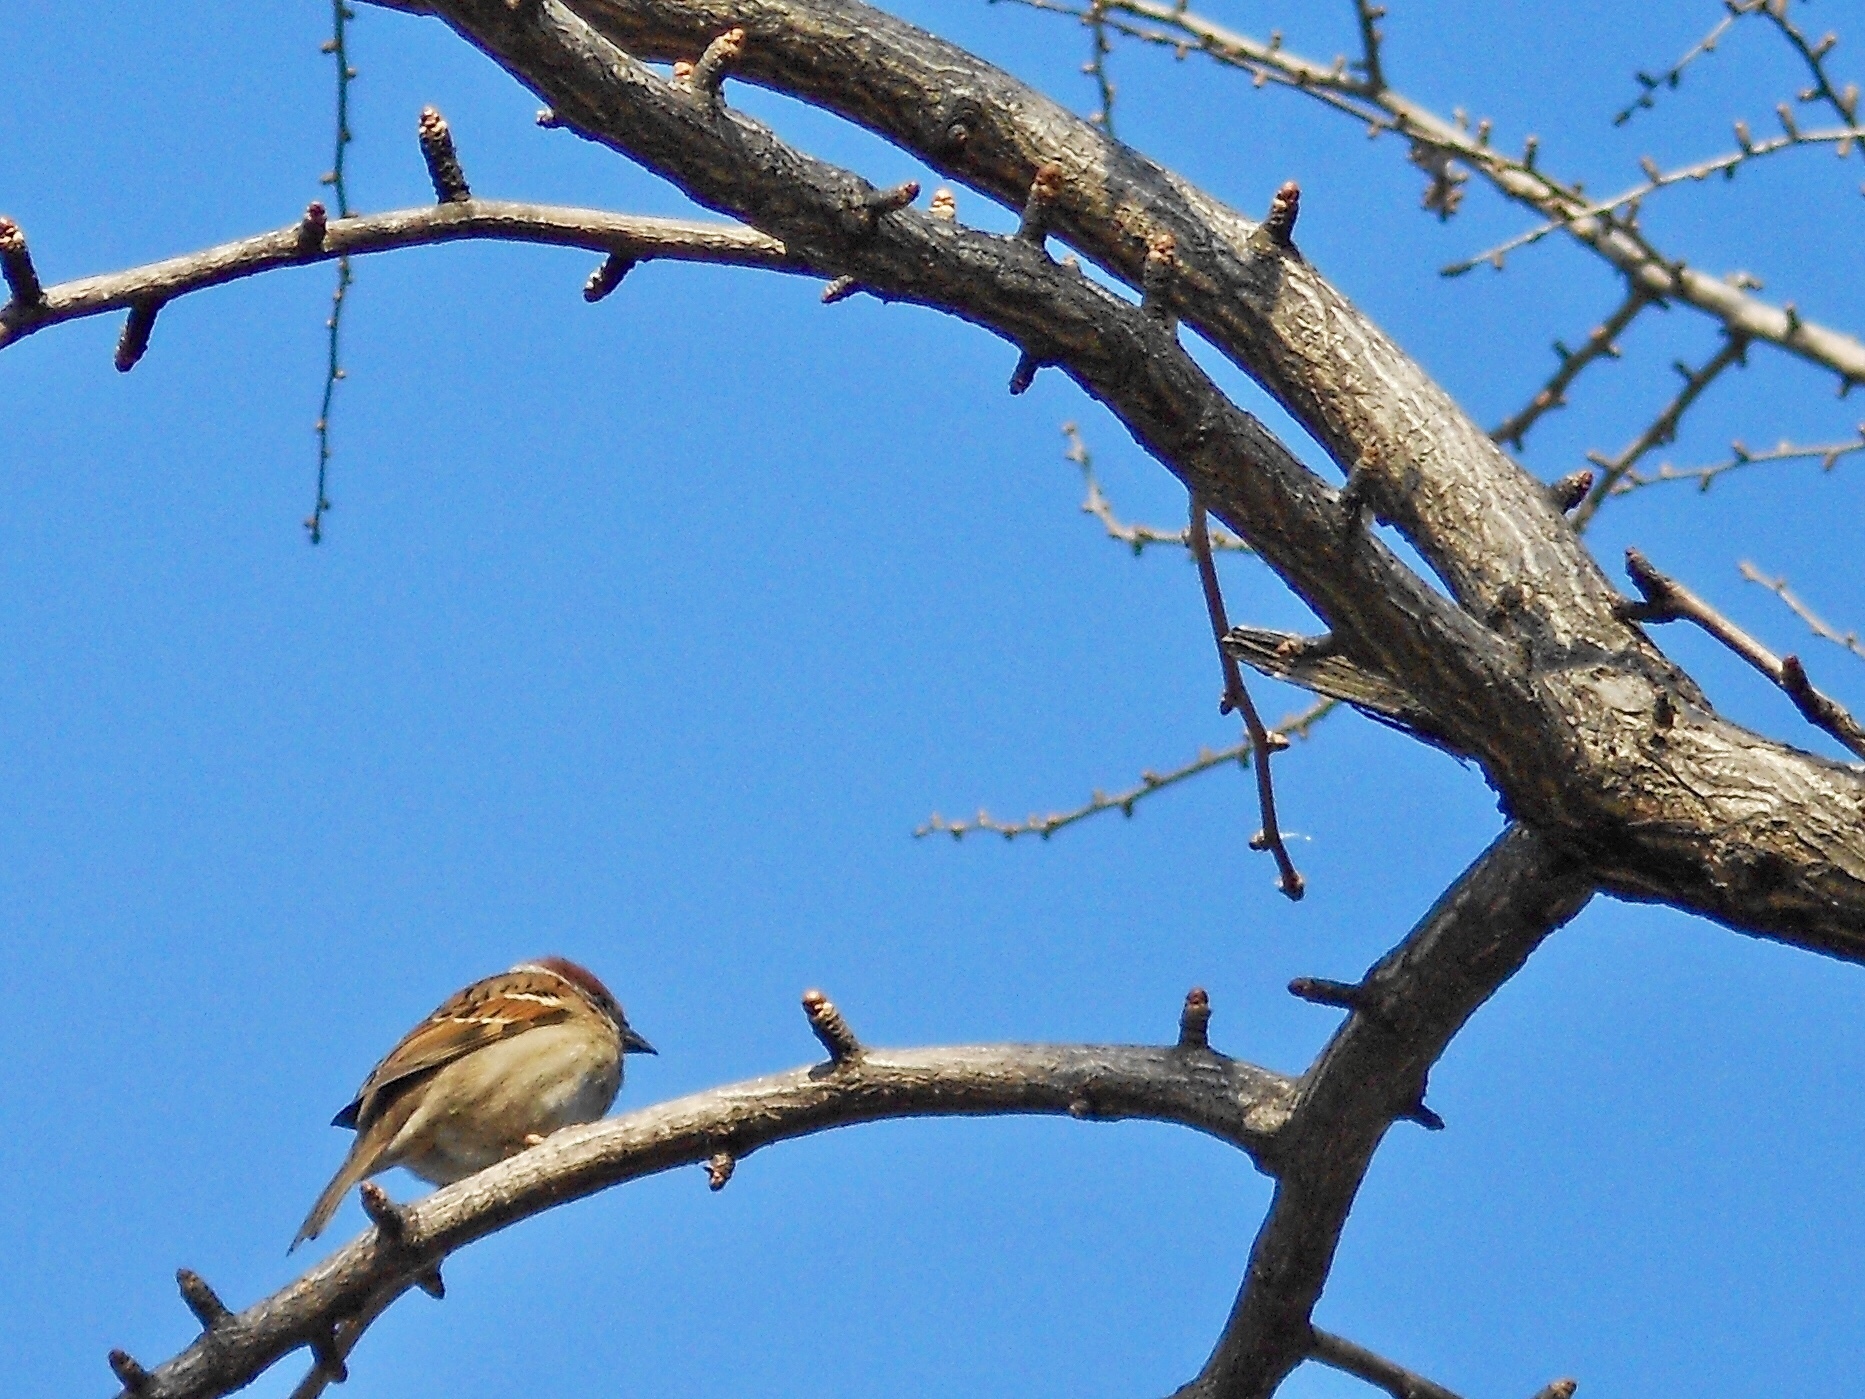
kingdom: Animalia
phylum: Chordata
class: Aves
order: Passeriformes
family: Passeridae
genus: Passer
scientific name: Passer montanus
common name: Eurasian tree sparrow
